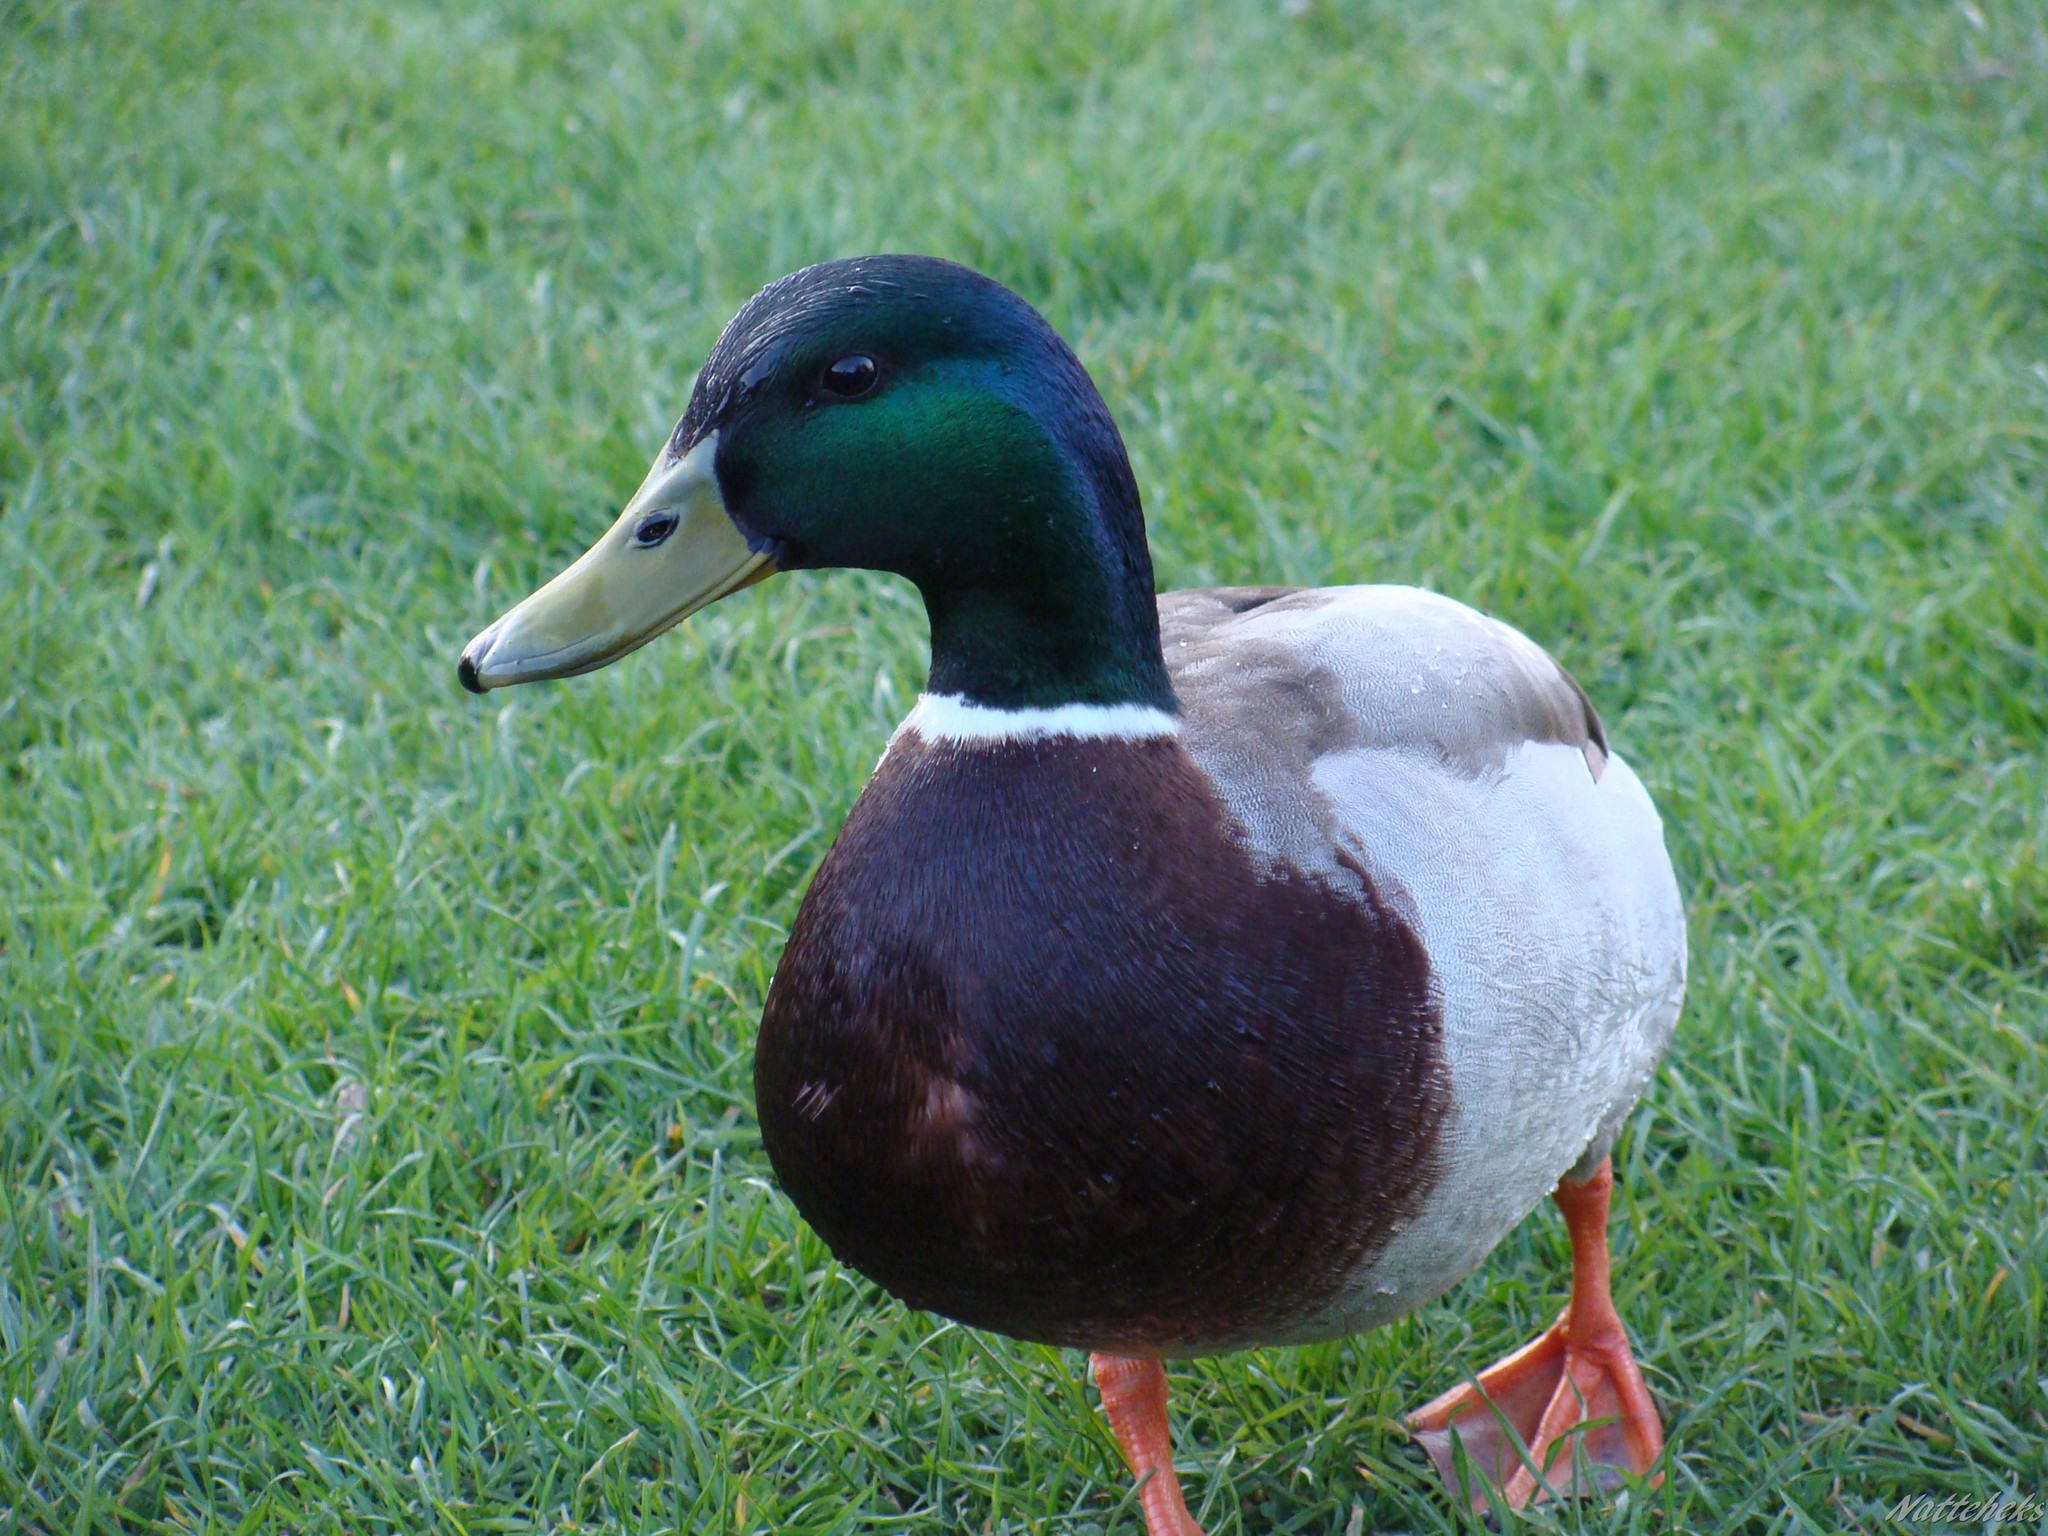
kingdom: Animalia
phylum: Chordata
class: Aves
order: Anseriformes
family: Anatidae
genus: Anas
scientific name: Anas platyrhynchos
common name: Mallard
